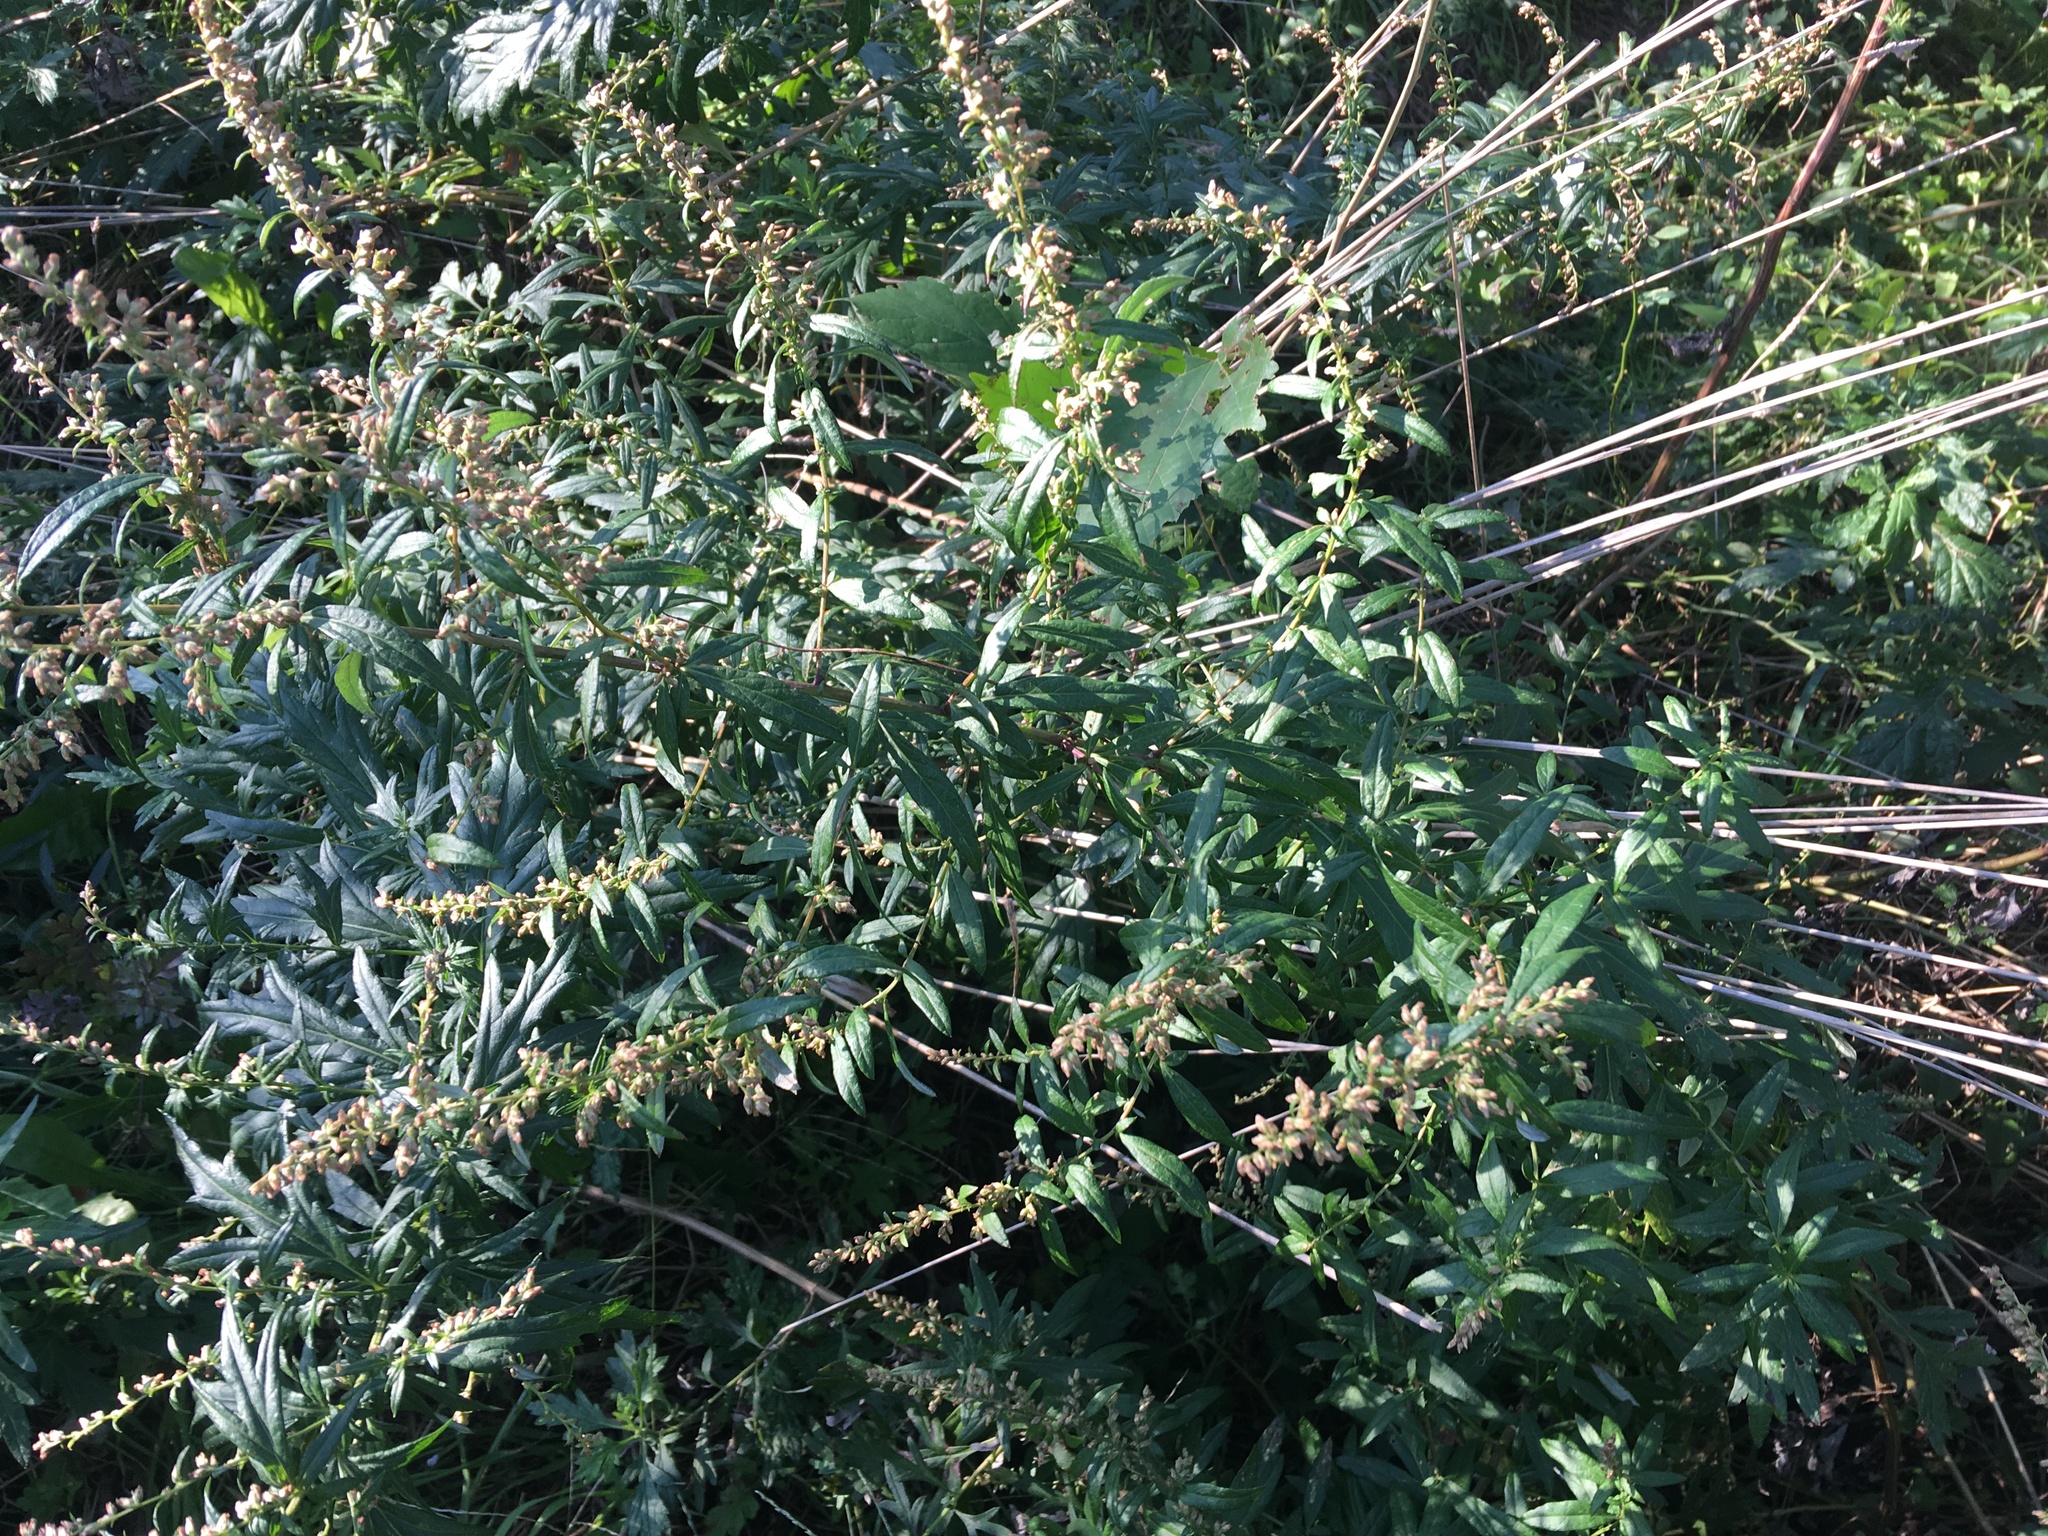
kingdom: Plantae
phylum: Tracheophyta
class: Magnoliopsida
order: Asterales
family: Asteraceae
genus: Artemisia
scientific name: Artemisia vulgaris
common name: Mugwort
